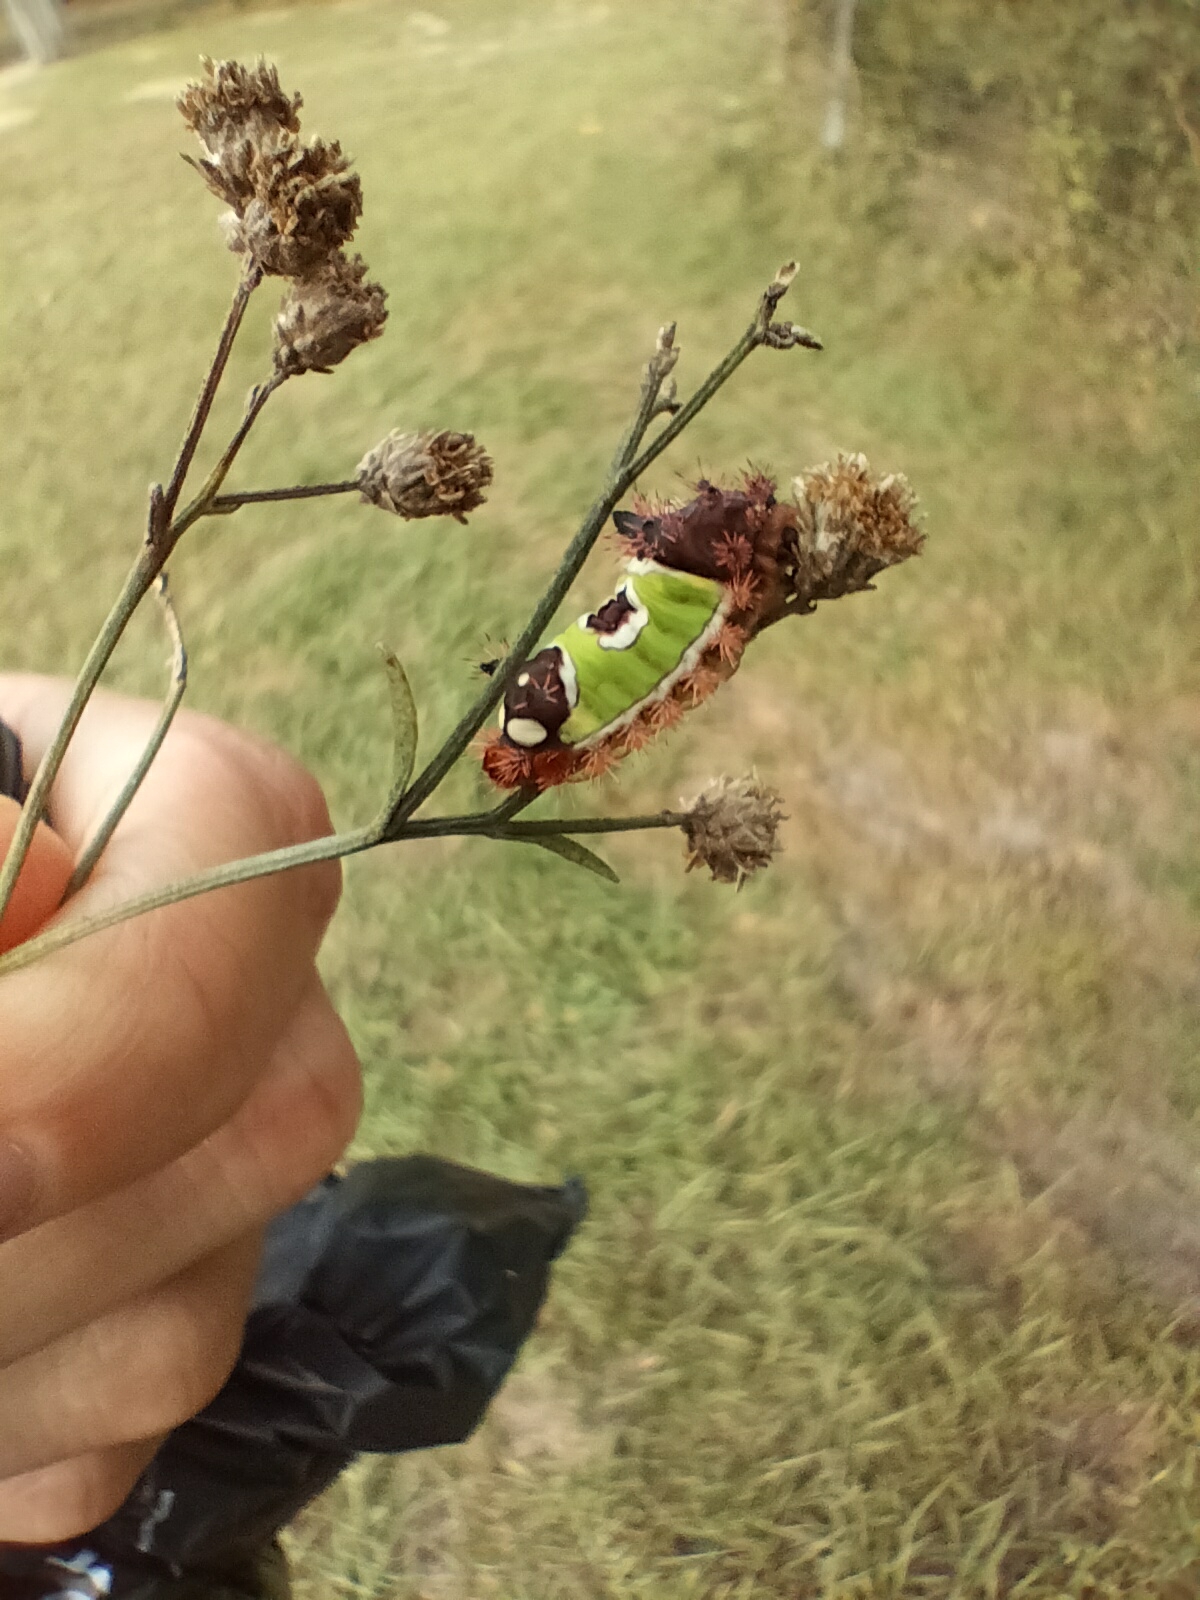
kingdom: Animalia
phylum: Arthropoda
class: Insecta
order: Lepidoptera
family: Limacodidae
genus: Acharia
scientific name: Acharia stimulea
